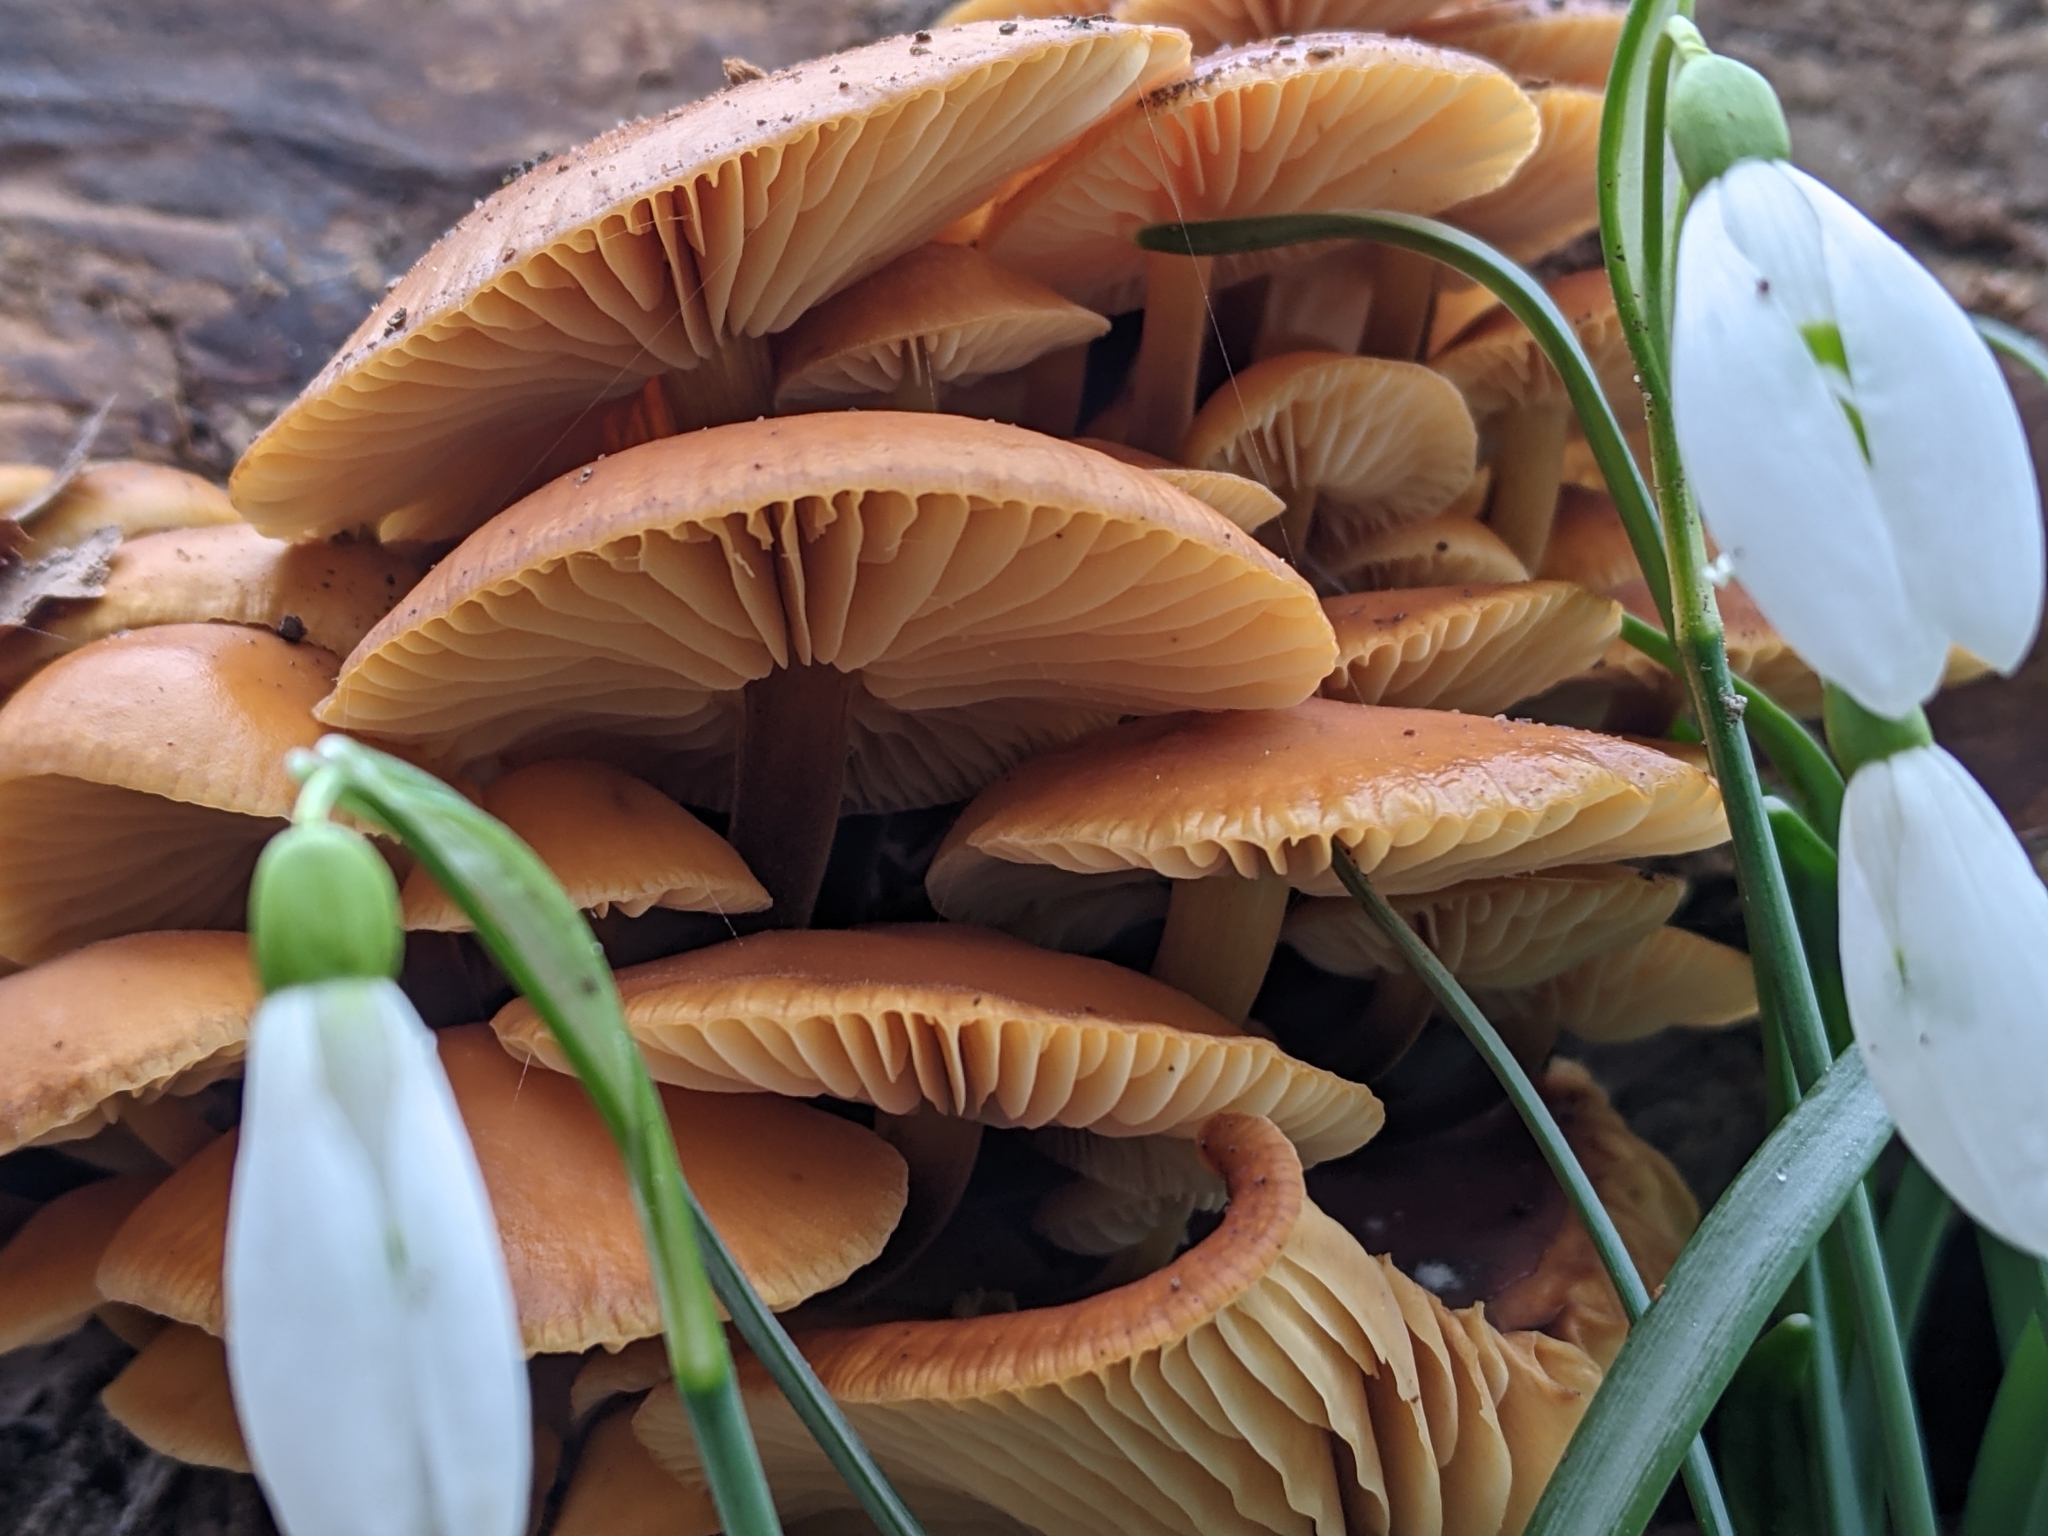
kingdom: Fungi
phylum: Basidiomycota
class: Agaricomycetes
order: Agaricales
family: Physalacriaceae
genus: Flammulina
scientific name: Flammulina
